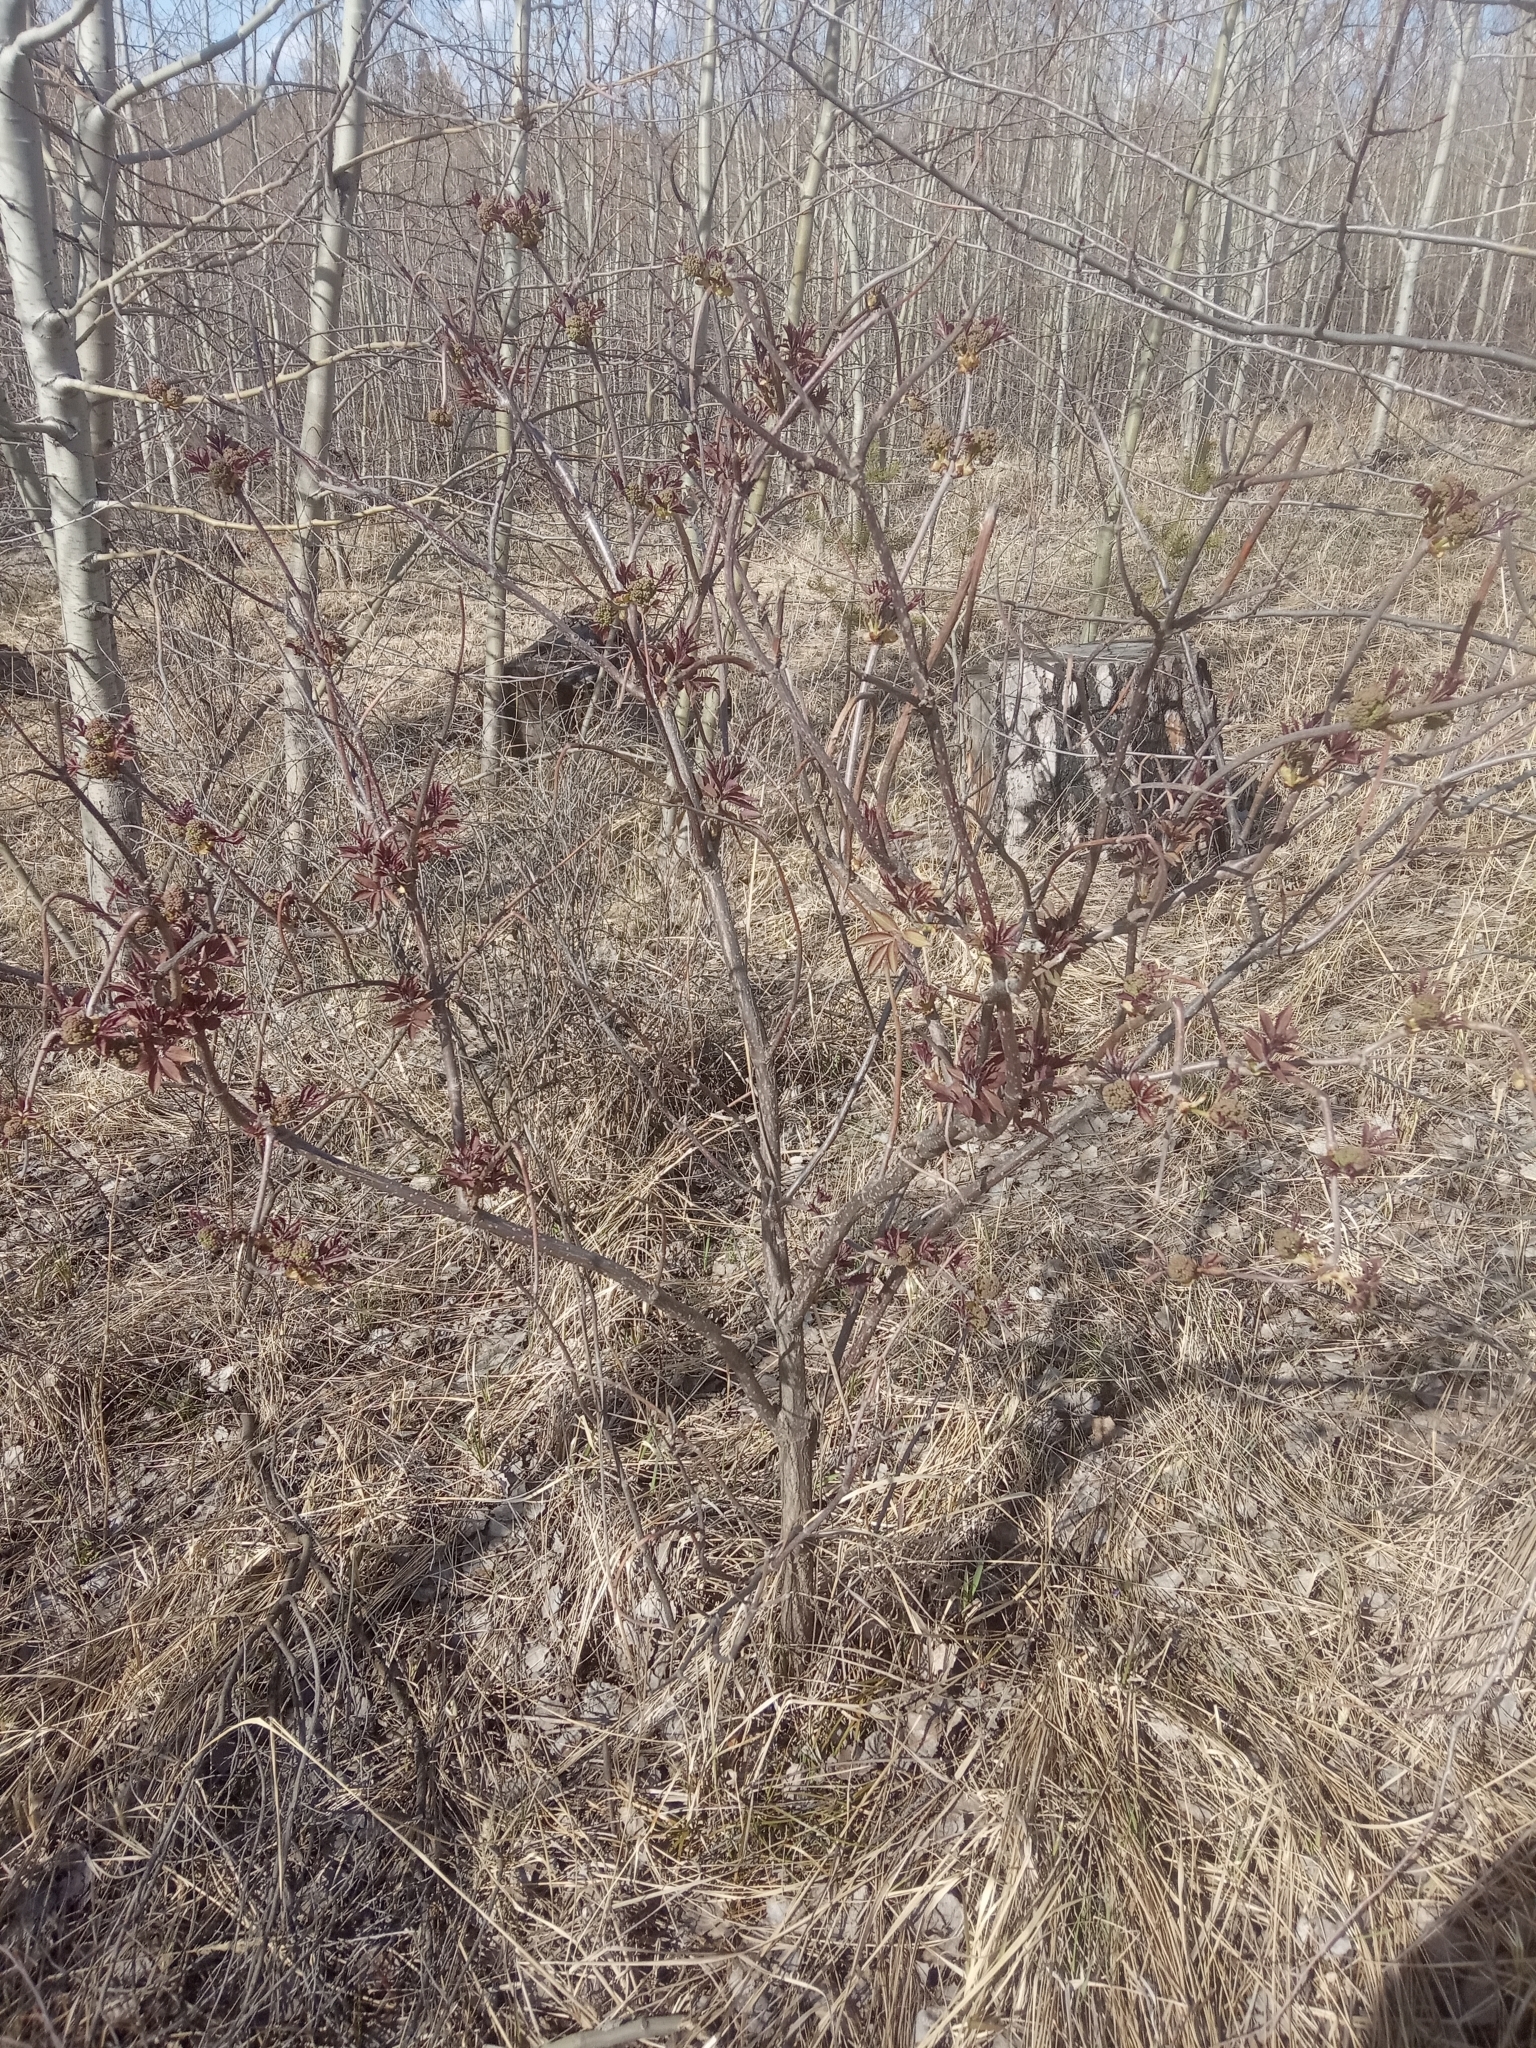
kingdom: Plantae
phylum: Tracheophyta
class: Magnoliopsida
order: Dipsacales
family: Viburnaceae
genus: Sambucus
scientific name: Sambucus racemosa
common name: Red-berried elder
